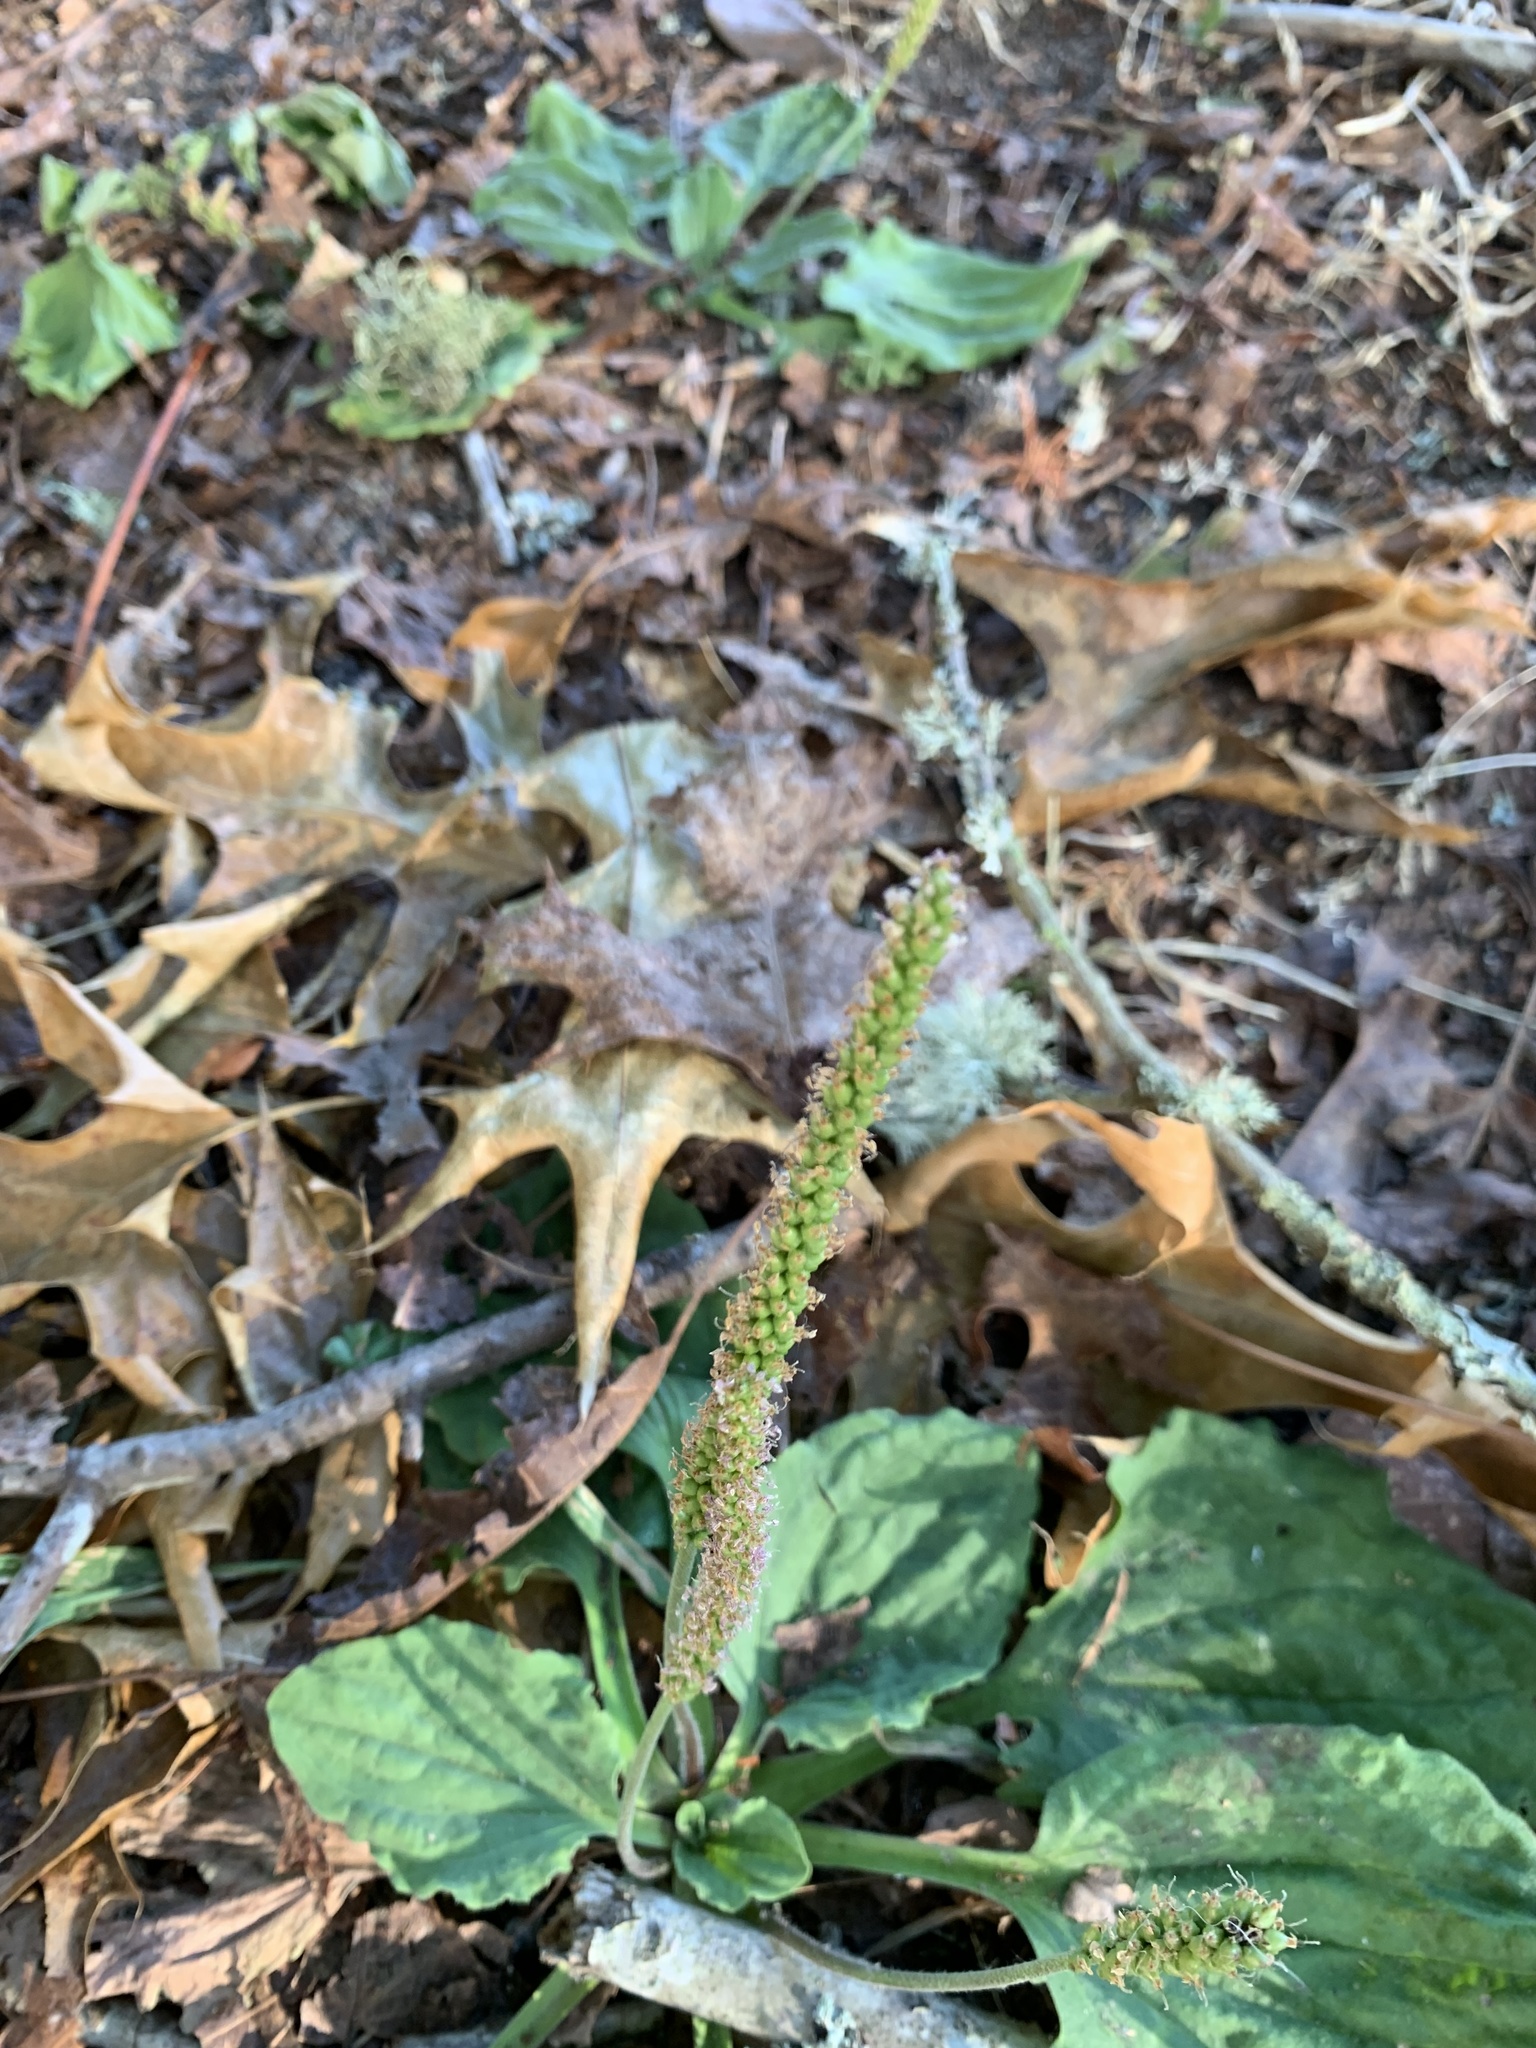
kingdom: Plantae
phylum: Tracheophyta
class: Magnoliopsida
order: Lamiales
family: Plantaginaceae
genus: Plantago
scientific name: Plantago major
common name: Common plantain
